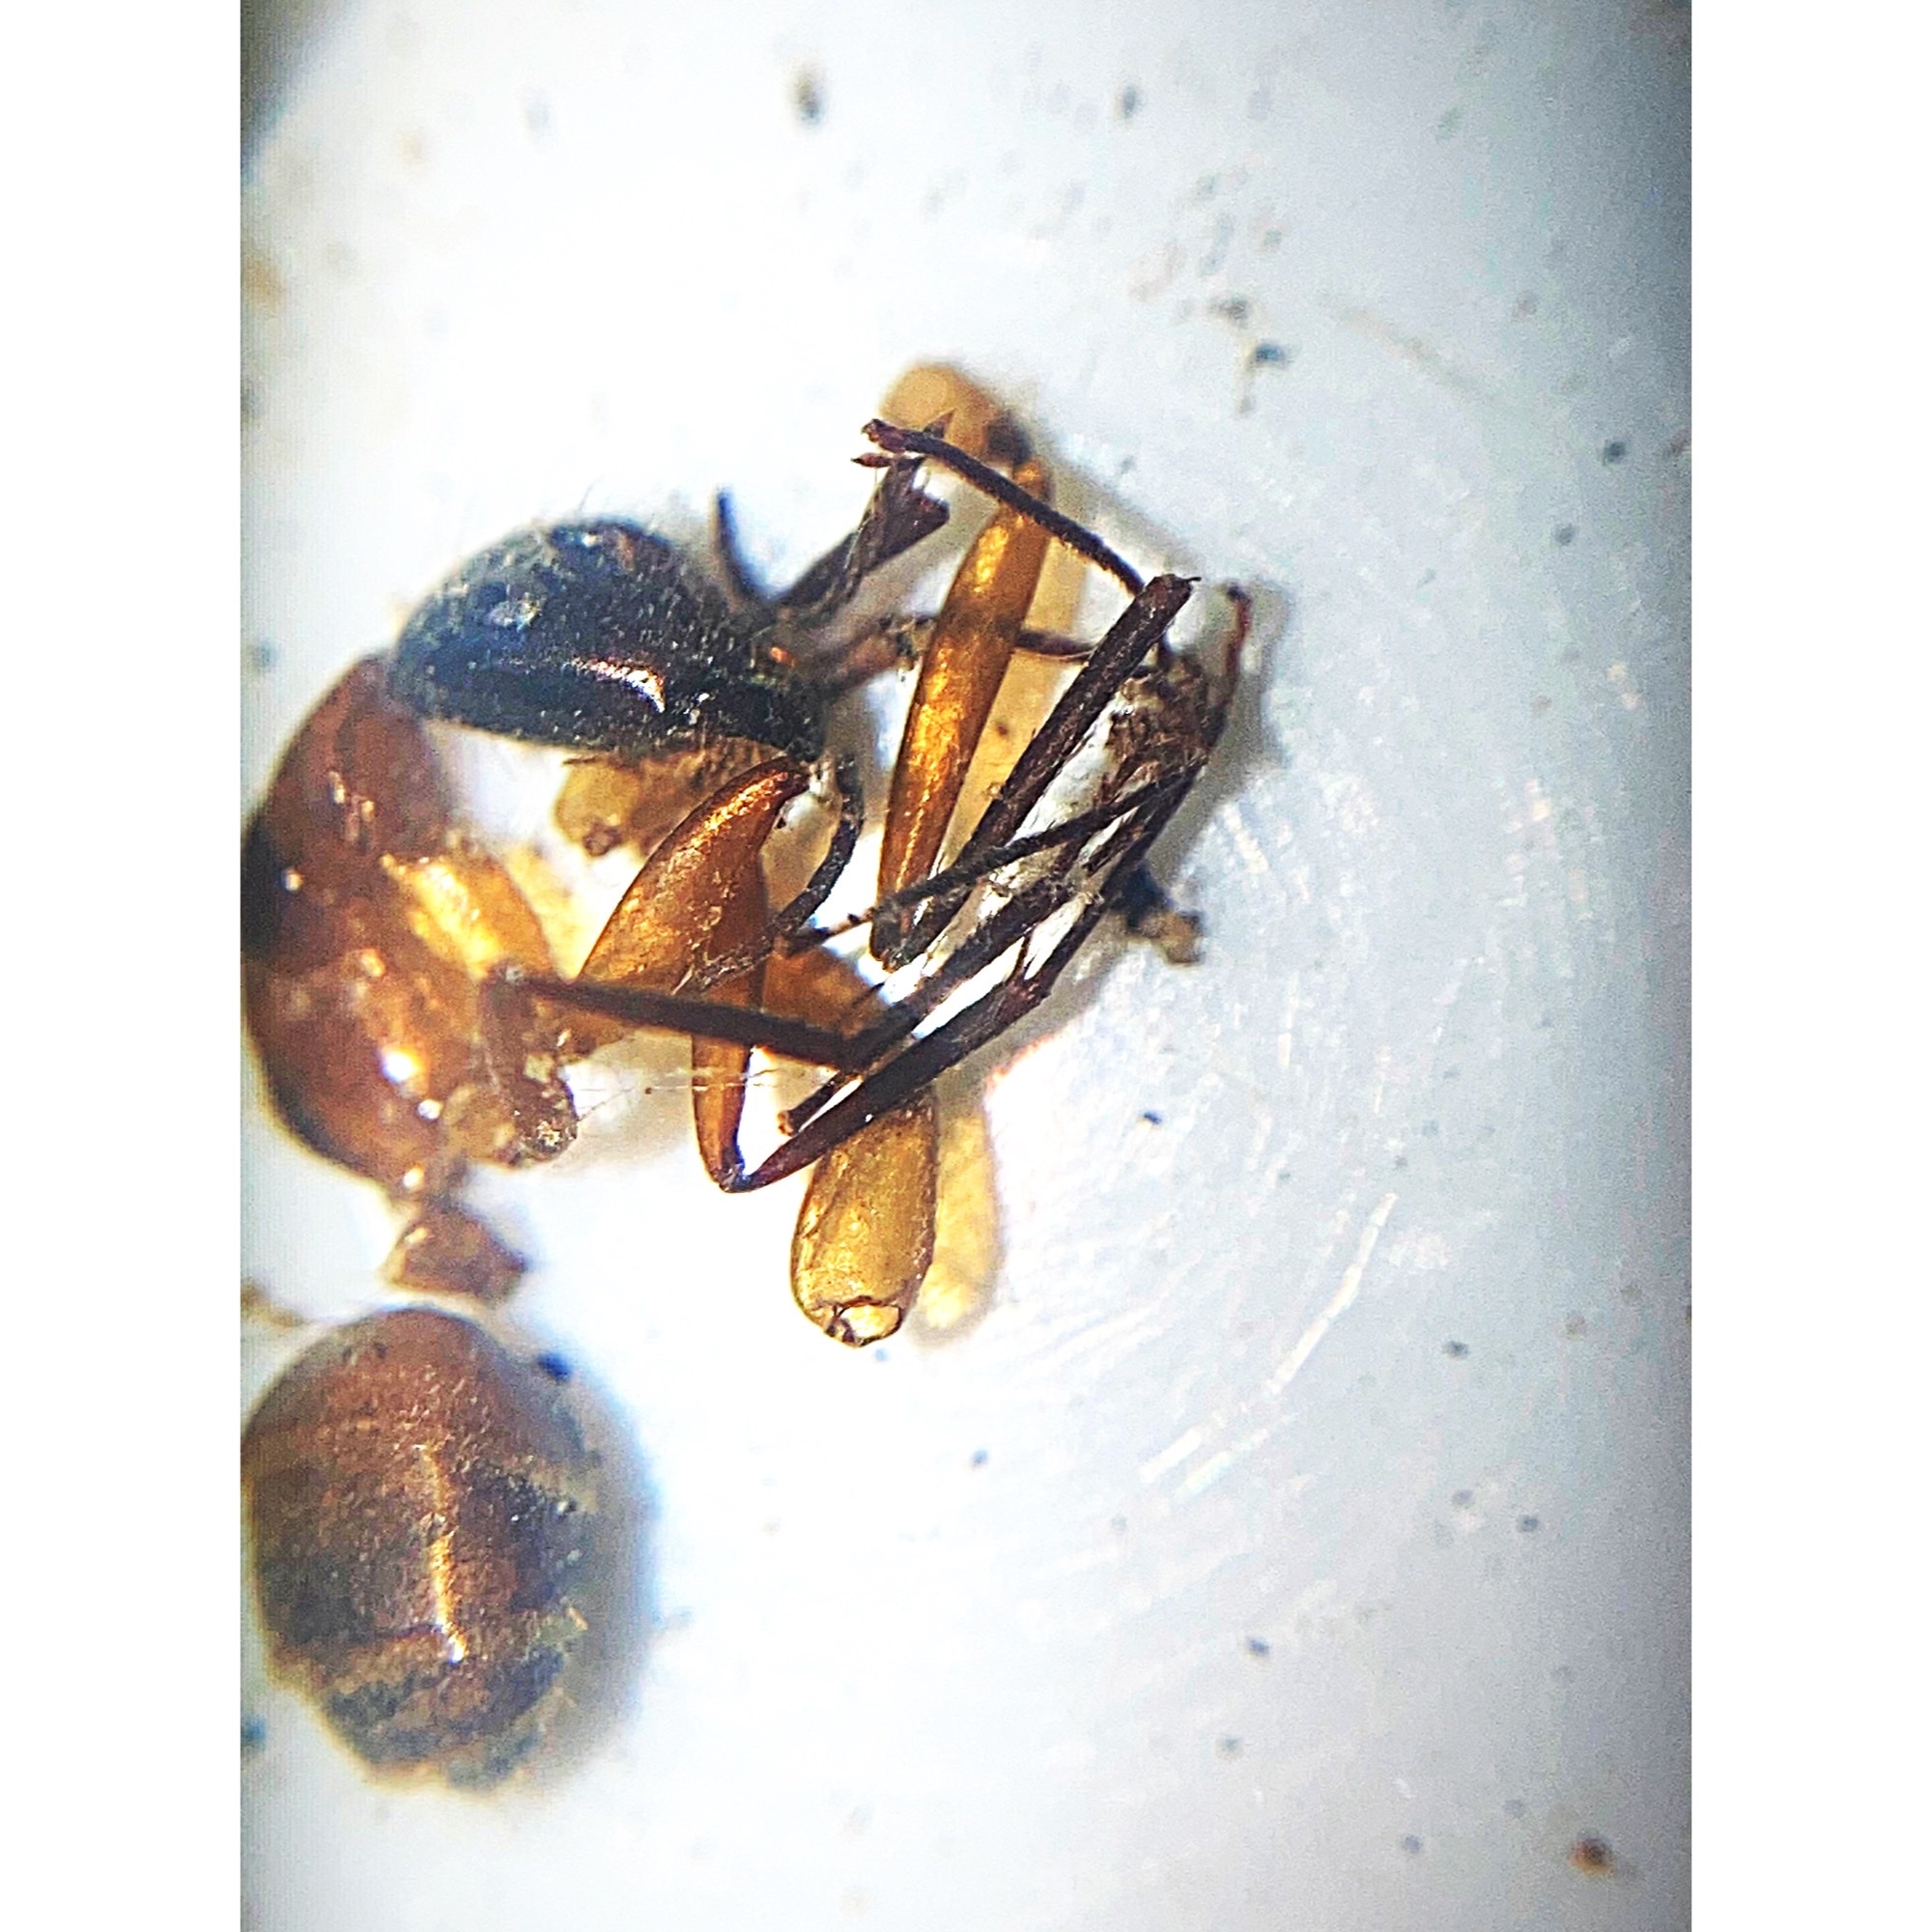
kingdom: Animalia
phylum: Arthropoda
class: Insecta
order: Hymenoptera
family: Formicidae
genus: Camponotus
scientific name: Camponotus americanus
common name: American carpenter ant
